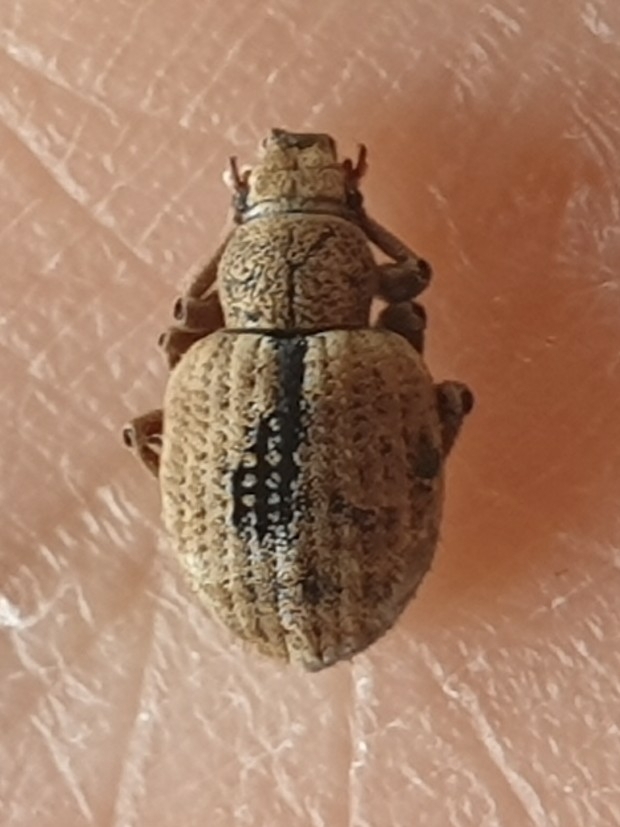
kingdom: Animalia
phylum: Arthropoda
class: Insecta
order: Coleoptera
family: Curculionidae
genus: Strophosoma
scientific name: Strophosoma melanogrammum
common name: Weevil
